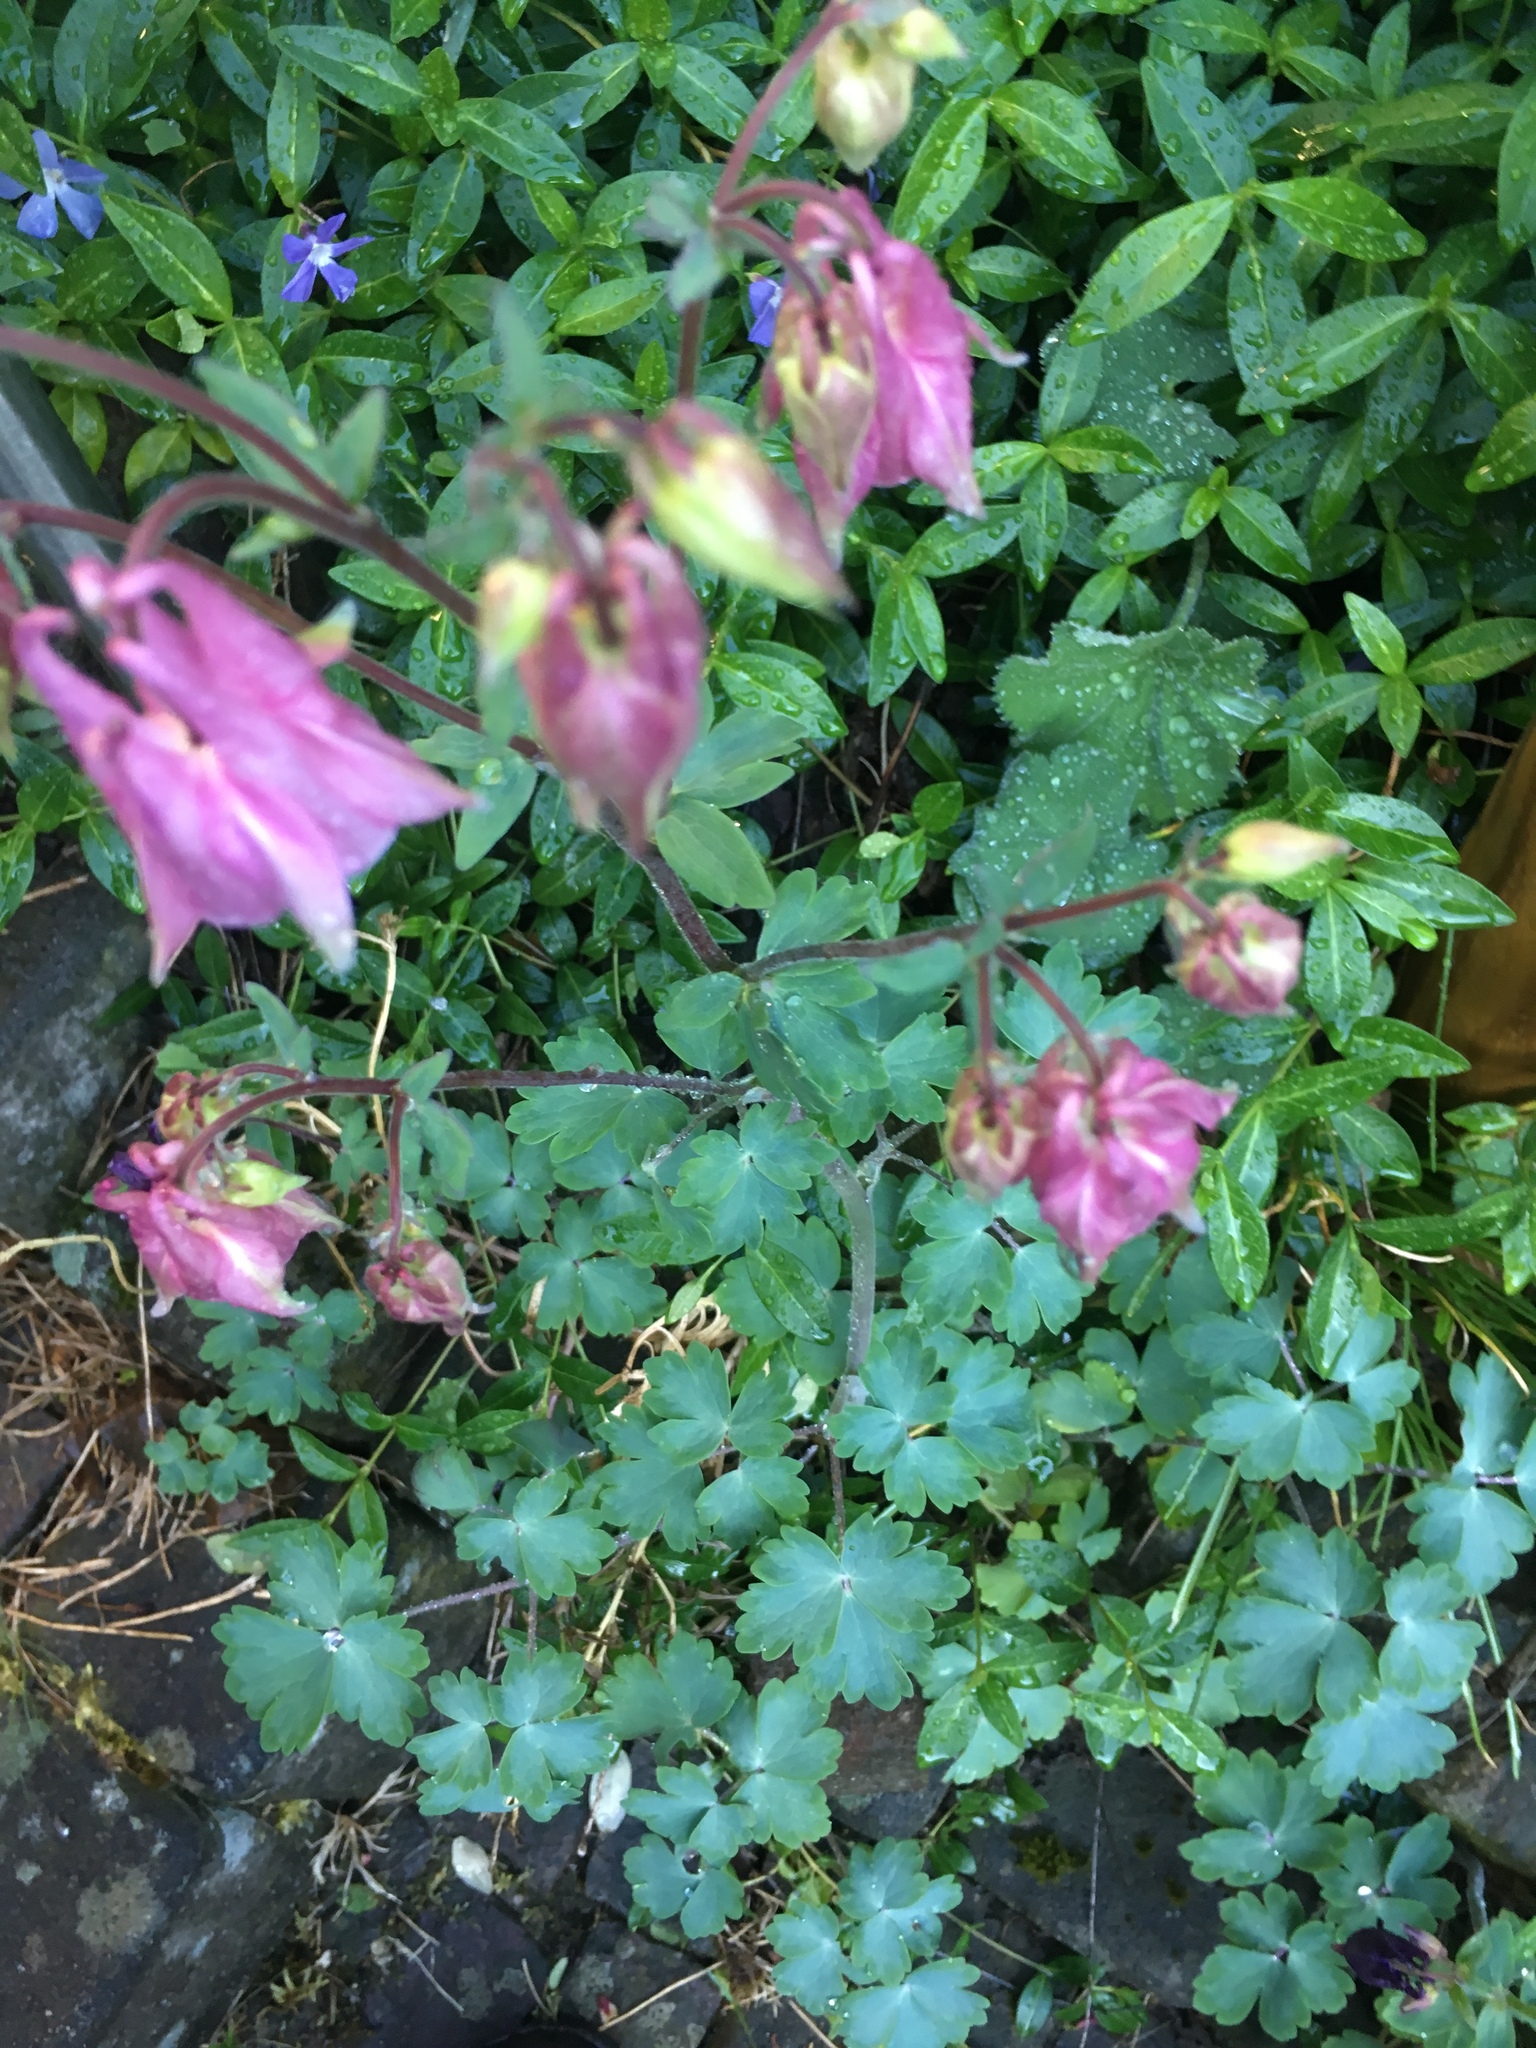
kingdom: Plantae
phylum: Tracheophyta
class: Magnoliopsida
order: Ranunculales
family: Ranunculaceae
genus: Aquilegia
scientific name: Aquilegia vulgaris
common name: Columbine
